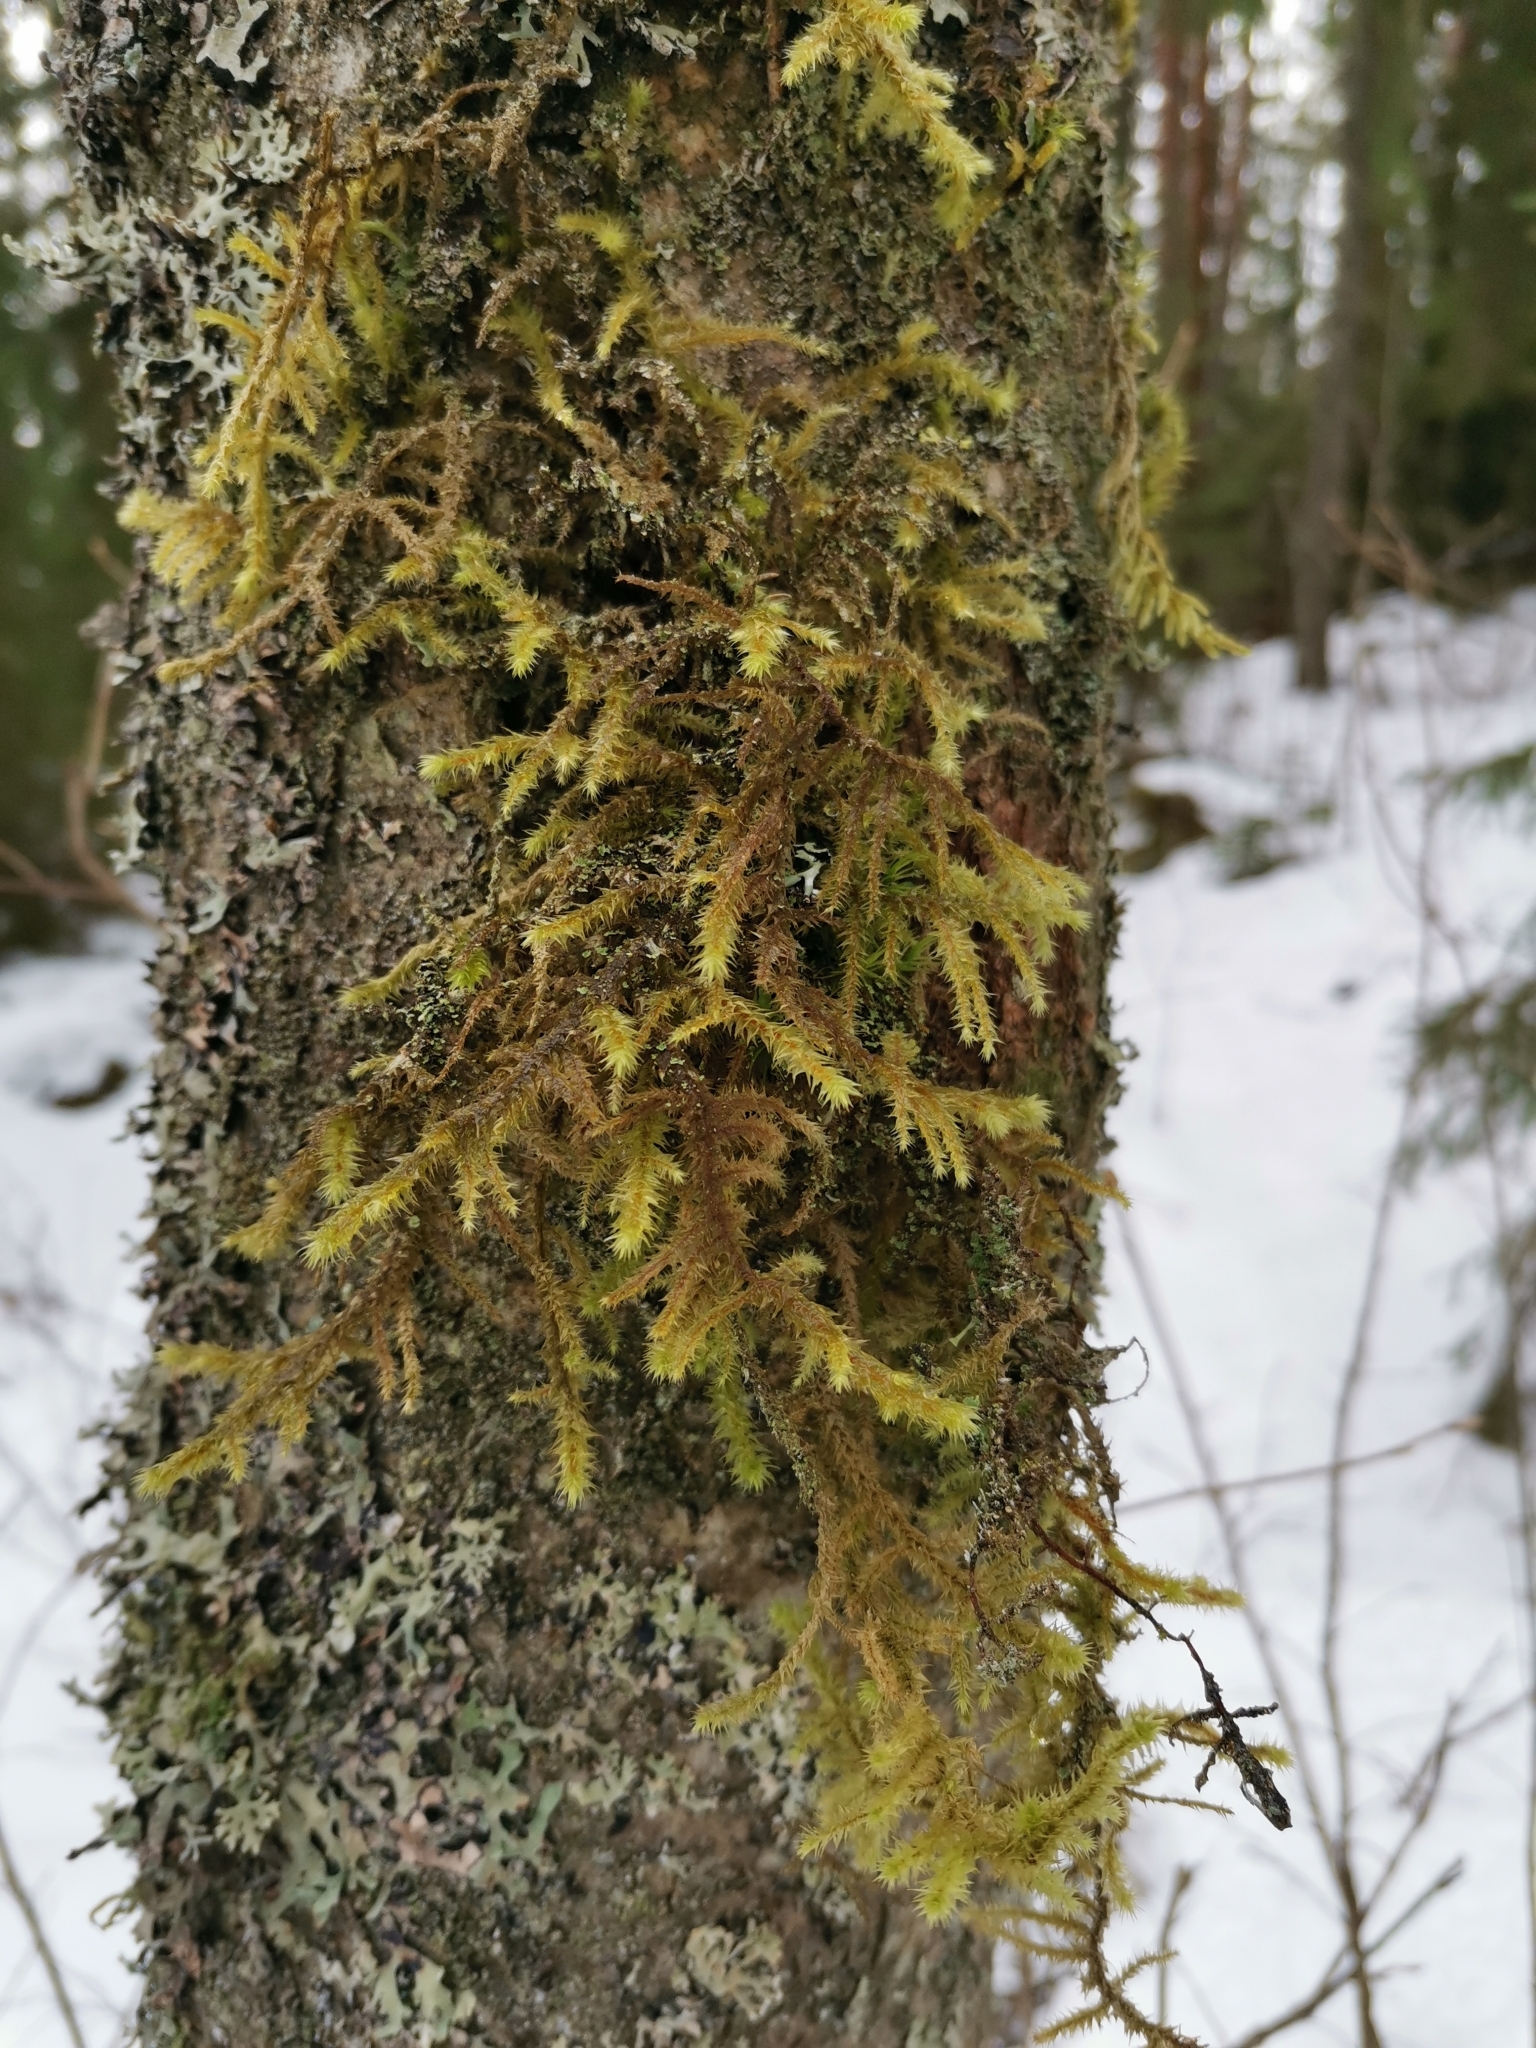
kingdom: Plantae
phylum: Bryophyta
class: Bryopsida
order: Hypnales
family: Hylocomiaceae
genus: Hylocomiadelphus
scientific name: Hylocomiadelphus triquetrus
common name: Rough goose neck moss
